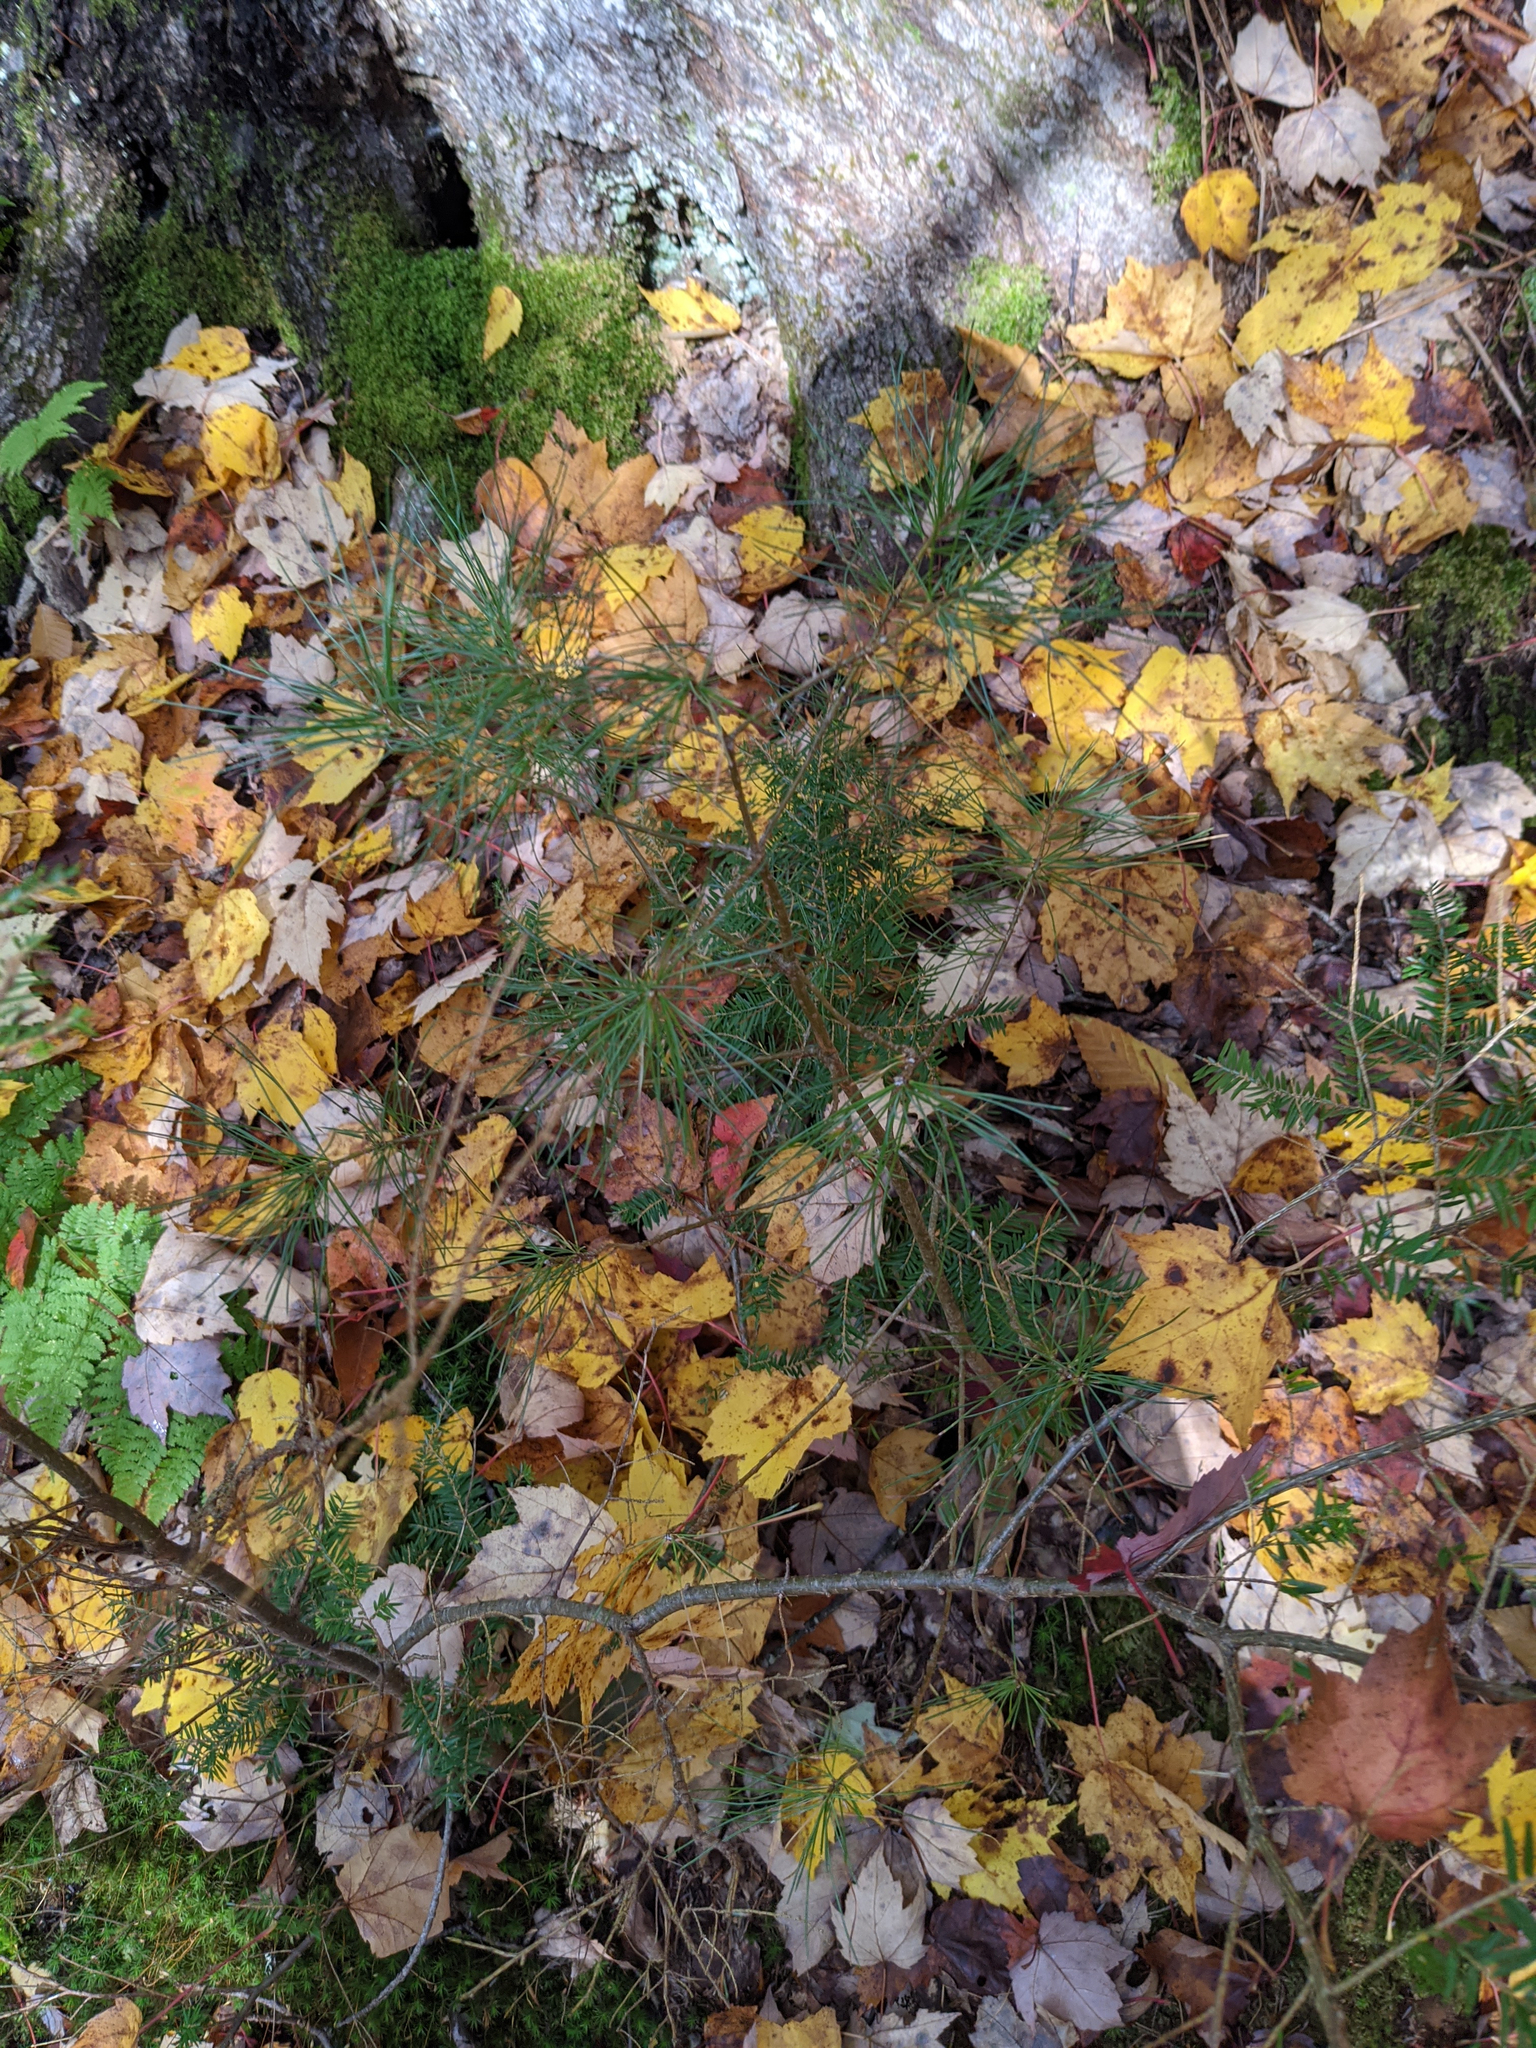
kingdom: Plantae
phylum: Tracheophyta
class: Pinopsida
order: Pinales
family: Pinaceae
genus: Pinus
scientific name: Pinus strobus
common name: Weymouth pine
